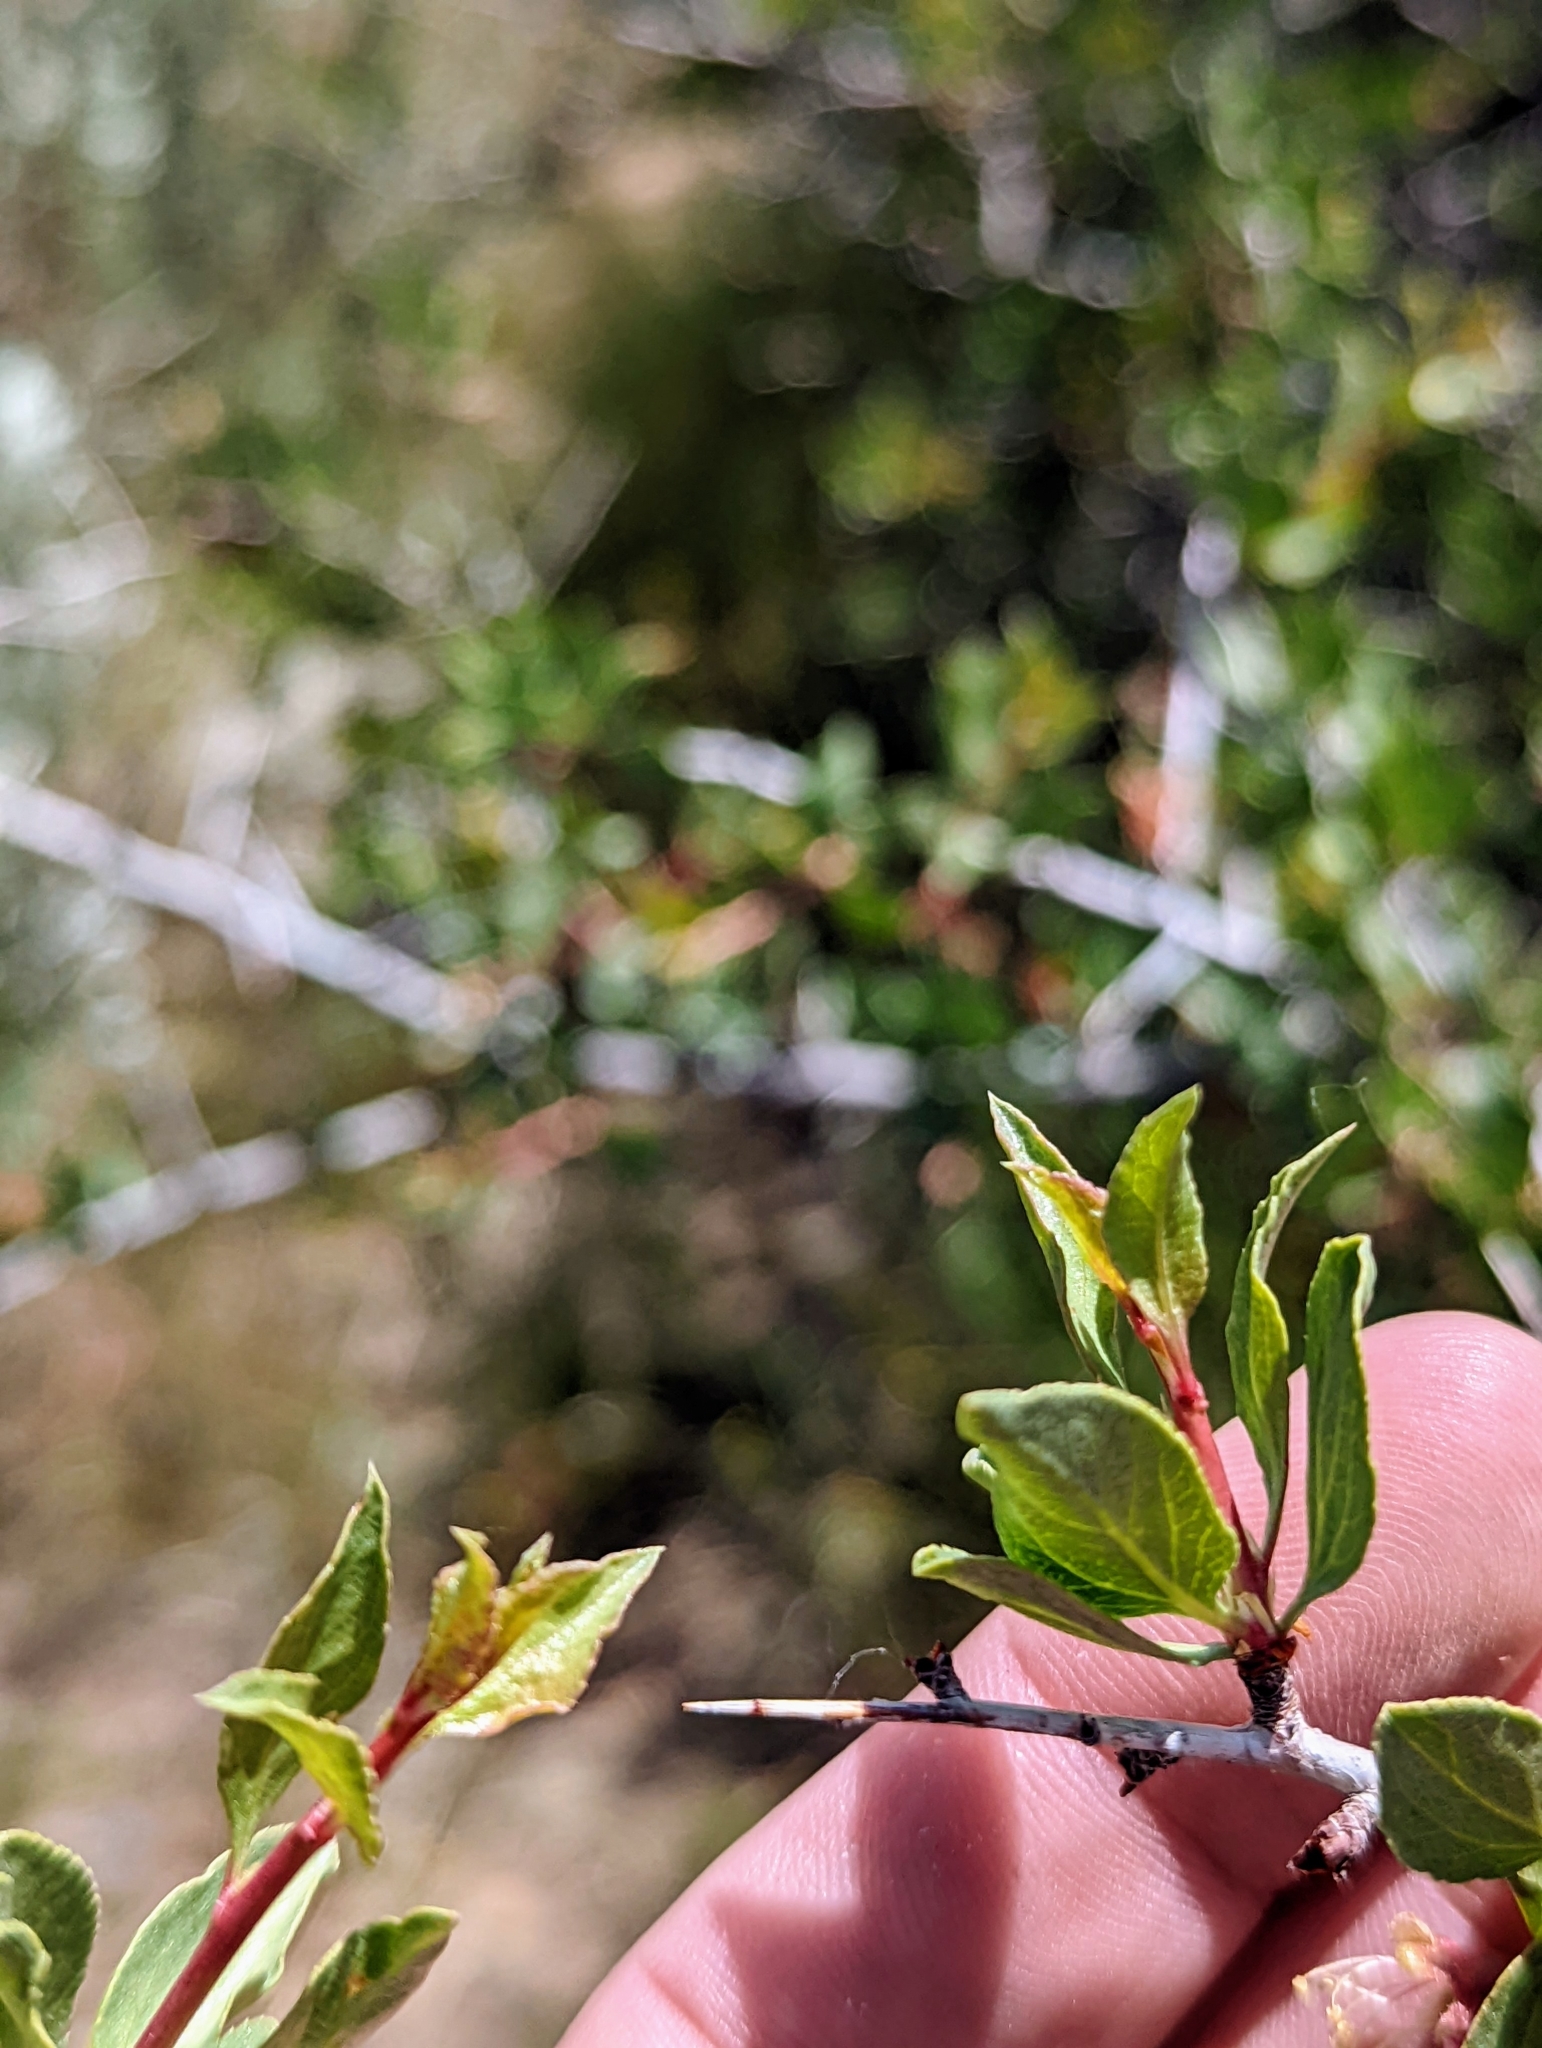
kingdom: Plantae
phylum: Tracheophyta
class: Magnoliopsida
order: Rosales
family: Rosaceae
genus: Prunus
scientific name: Prunus andersonii
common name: Desert peach
